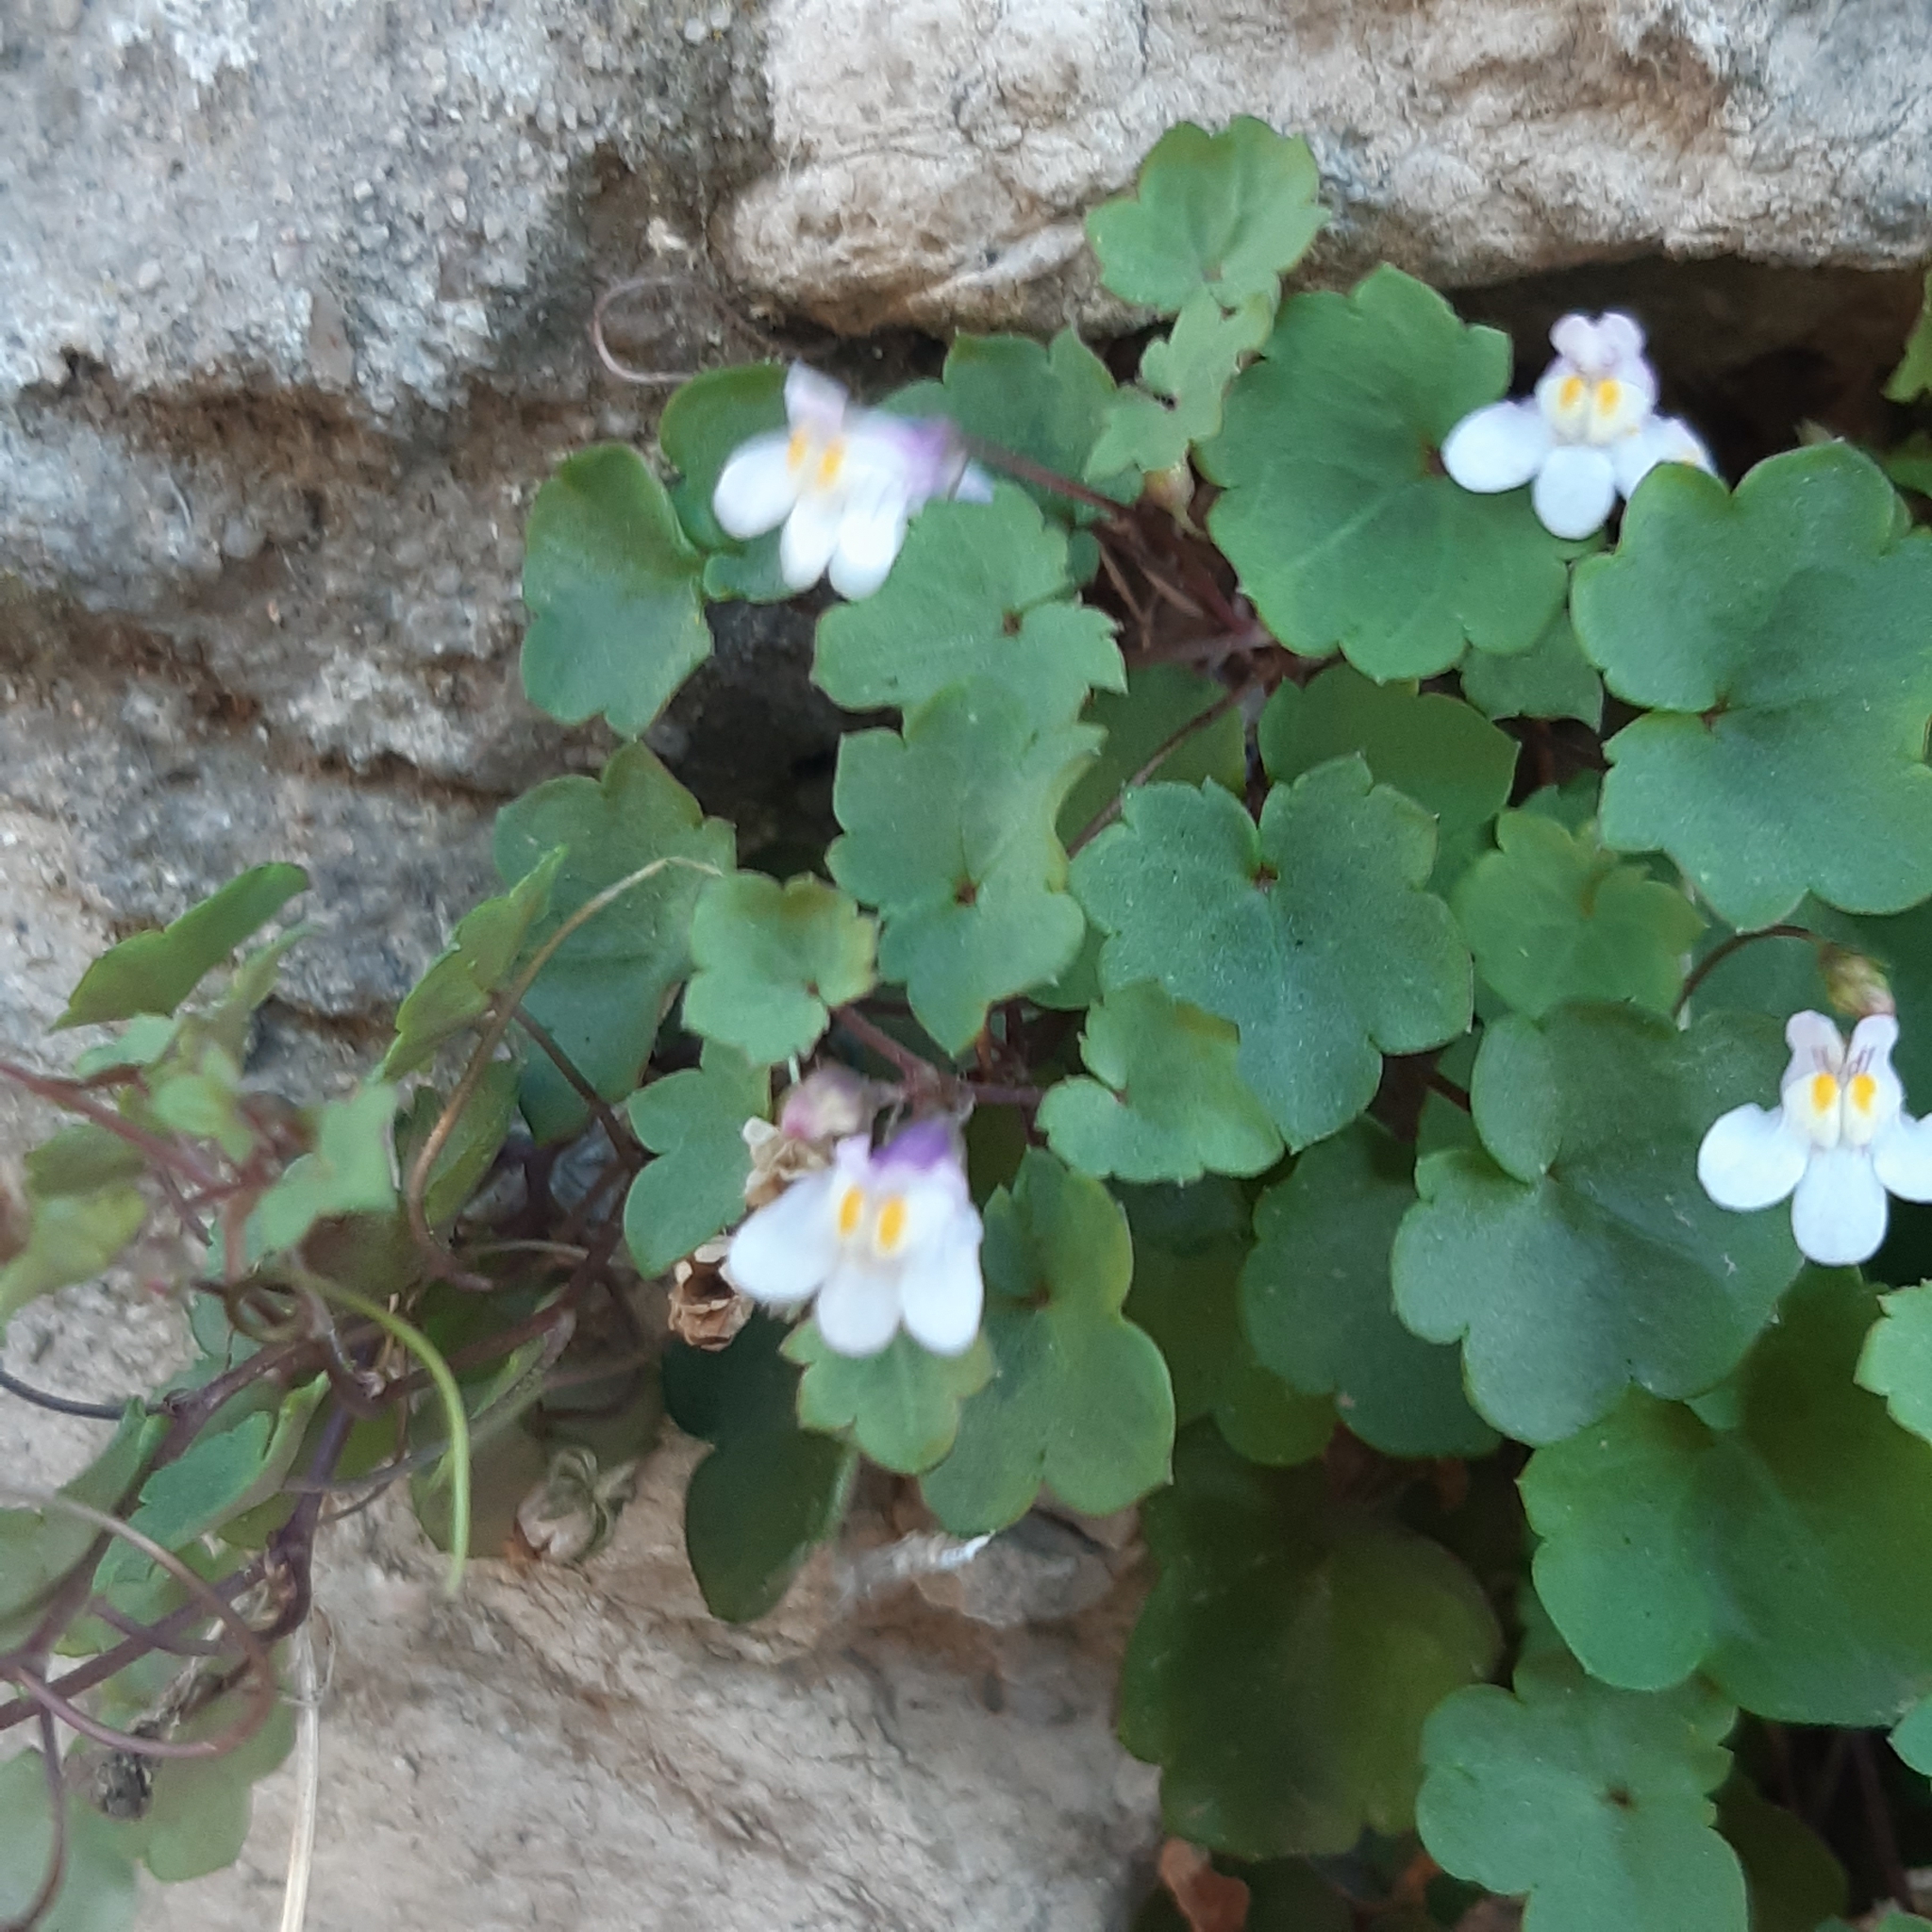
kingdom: Plantae
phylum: Tracheophyta
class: Magnoliopsida
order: Lamiales
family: Plantaginaceae
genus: Cymbalaria
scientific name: Cymbalaria muralis
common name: Ivy-leaved toadflax
